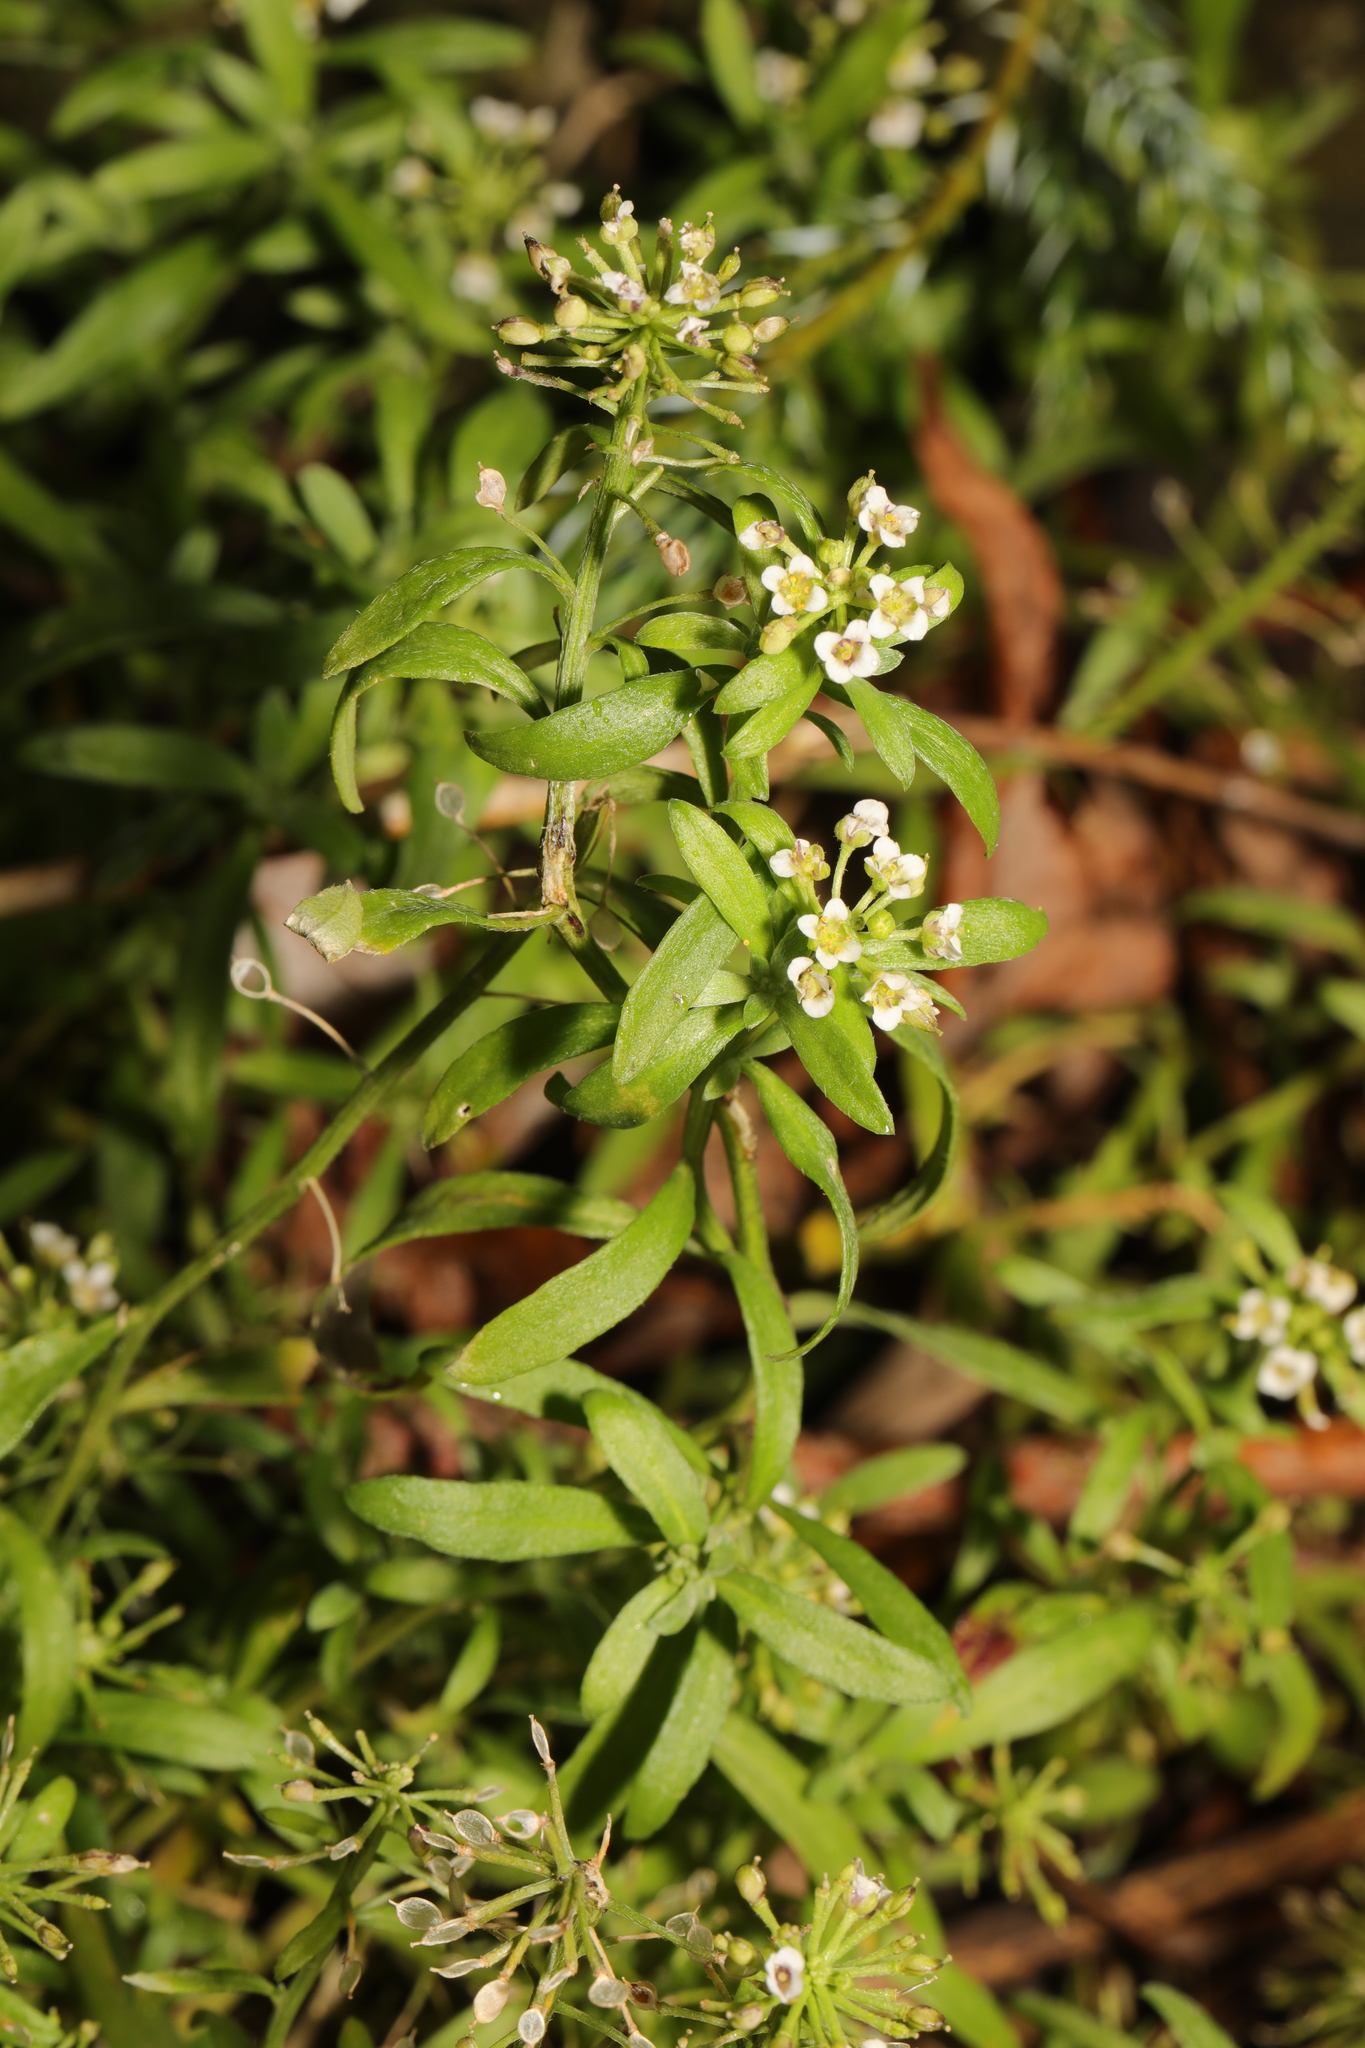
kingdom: Plantae
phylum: Tracheophyta
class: Magnoliopsida
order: Brassicales
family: Brassicaceae
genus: Lobularia
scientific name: Lobularia maritima
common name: Sweet alison
